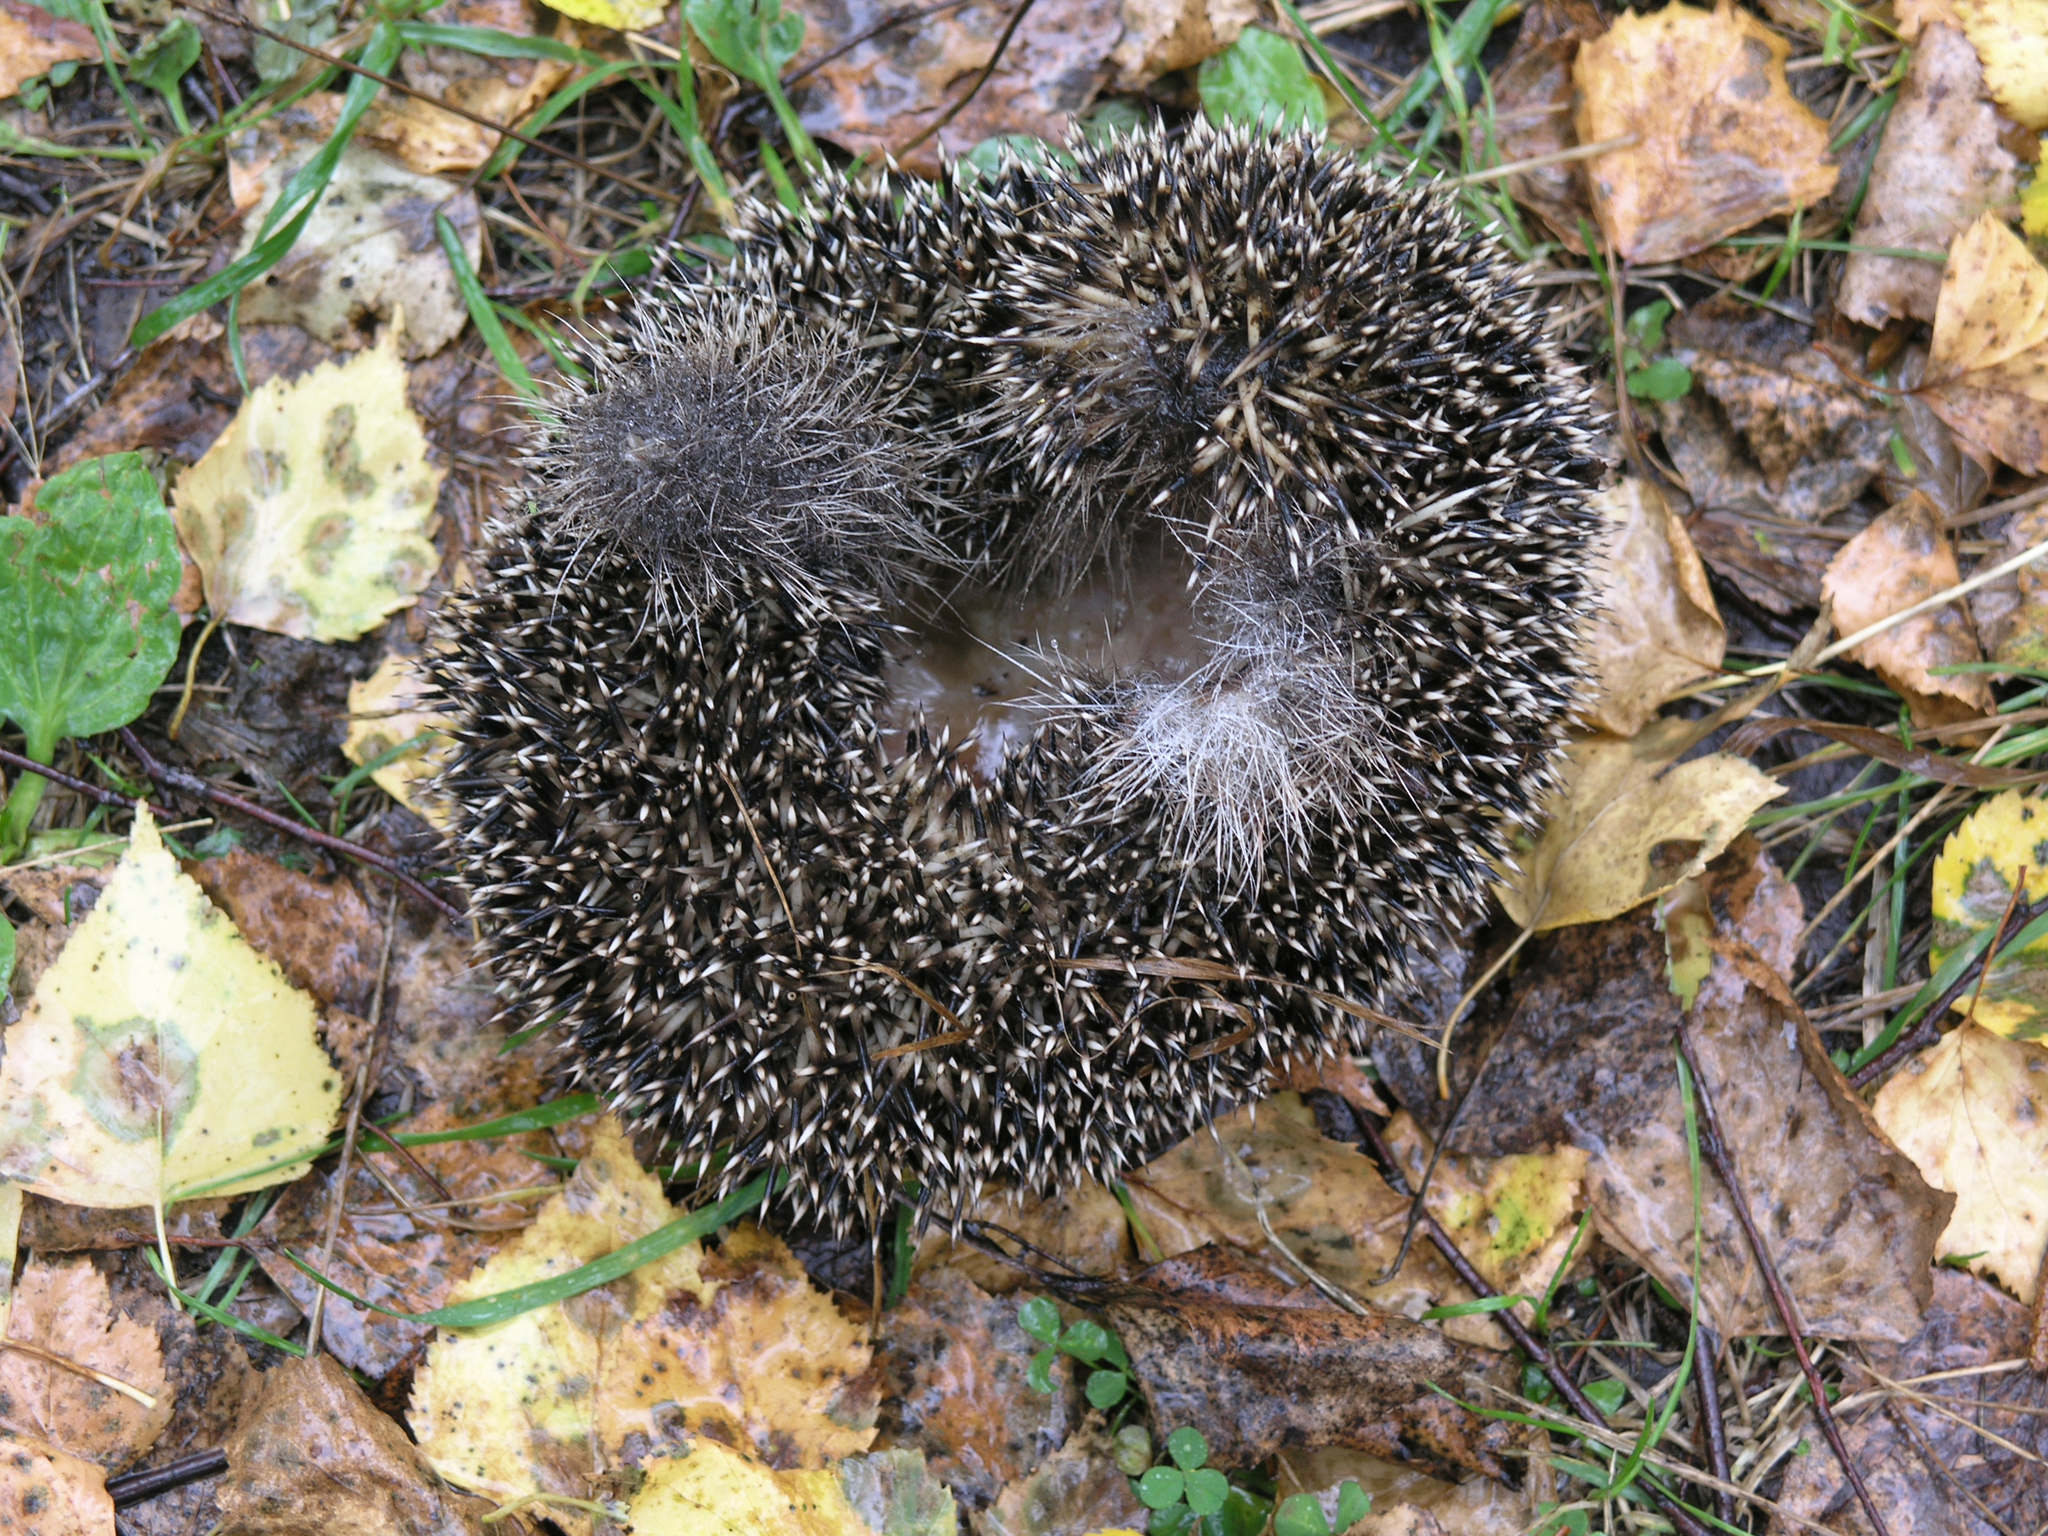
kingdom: Animalia
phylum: Chordata
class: Mammalia
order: Erinaceomorpha
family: Erinaceidae
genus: Erinaceus
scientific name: Erinaceus roumanicus
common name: Northern white-breasted hedgehog
